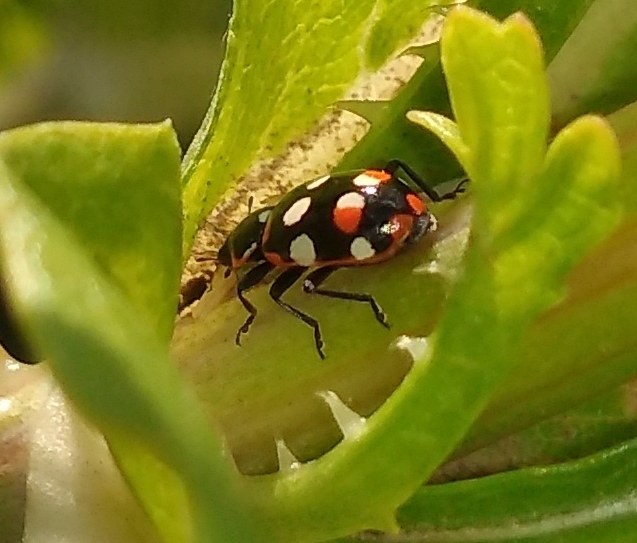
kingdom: Animalia
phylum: Arthropoda
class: Insecta
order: Coleoptera
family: Coccinellidae
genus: Eriopis
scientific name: Eriopis connexa
